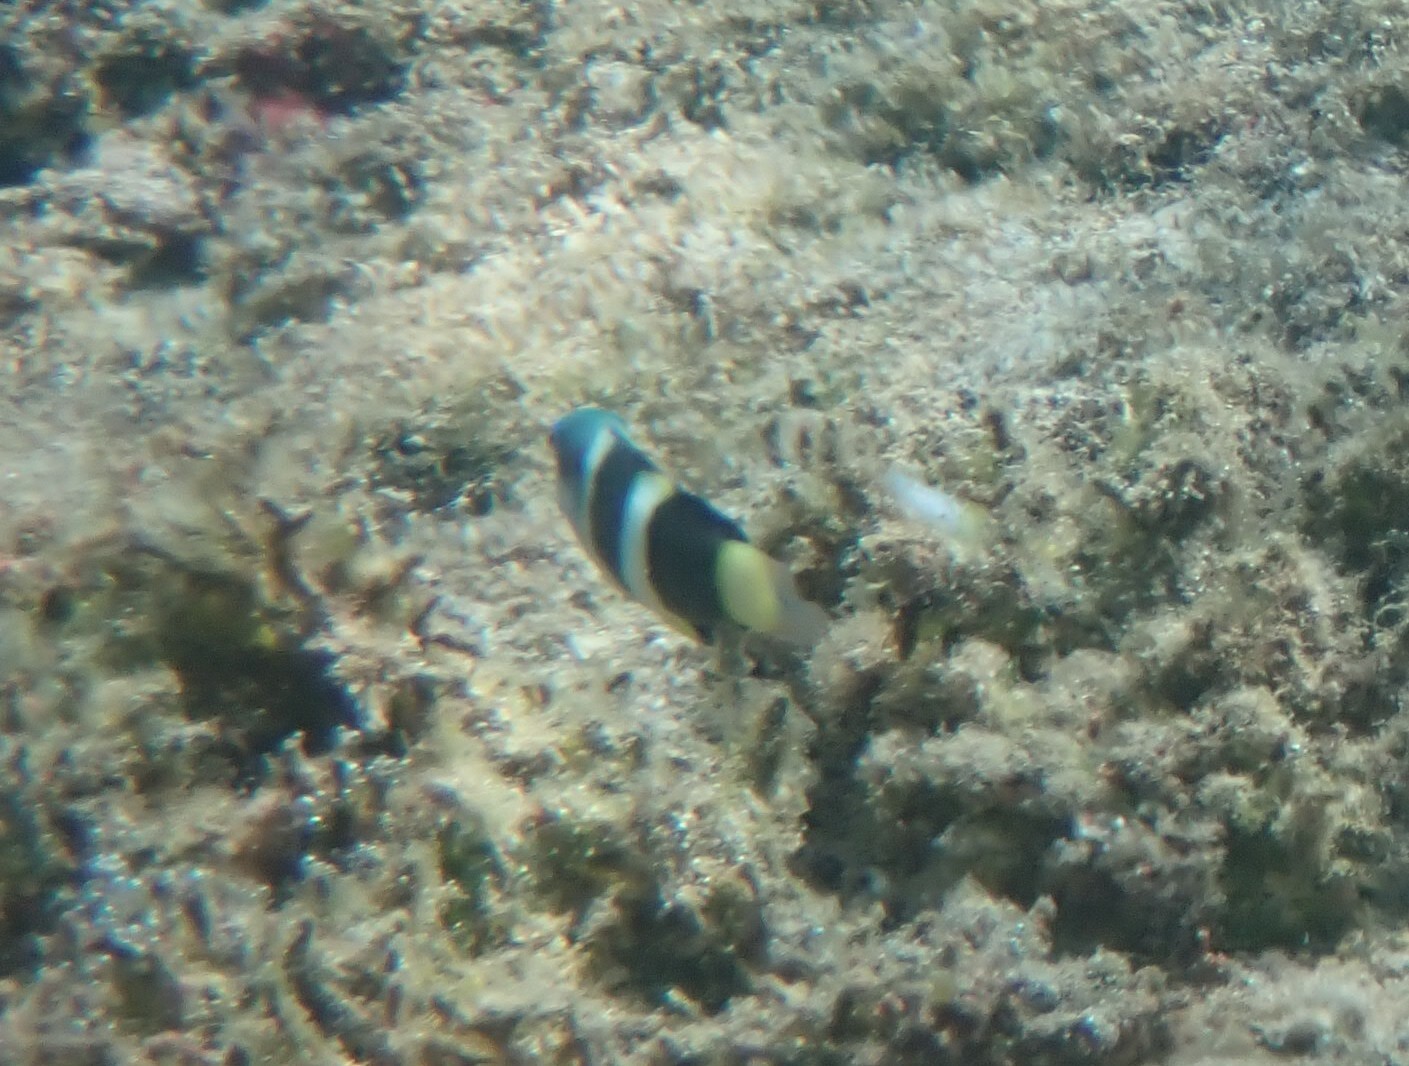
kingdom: Animalia
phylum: Chordata
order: Perciformes
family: Labridae
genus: Thalassoma
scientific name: Thalassoma nigrofasciatum
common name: Black-barred wrasse
